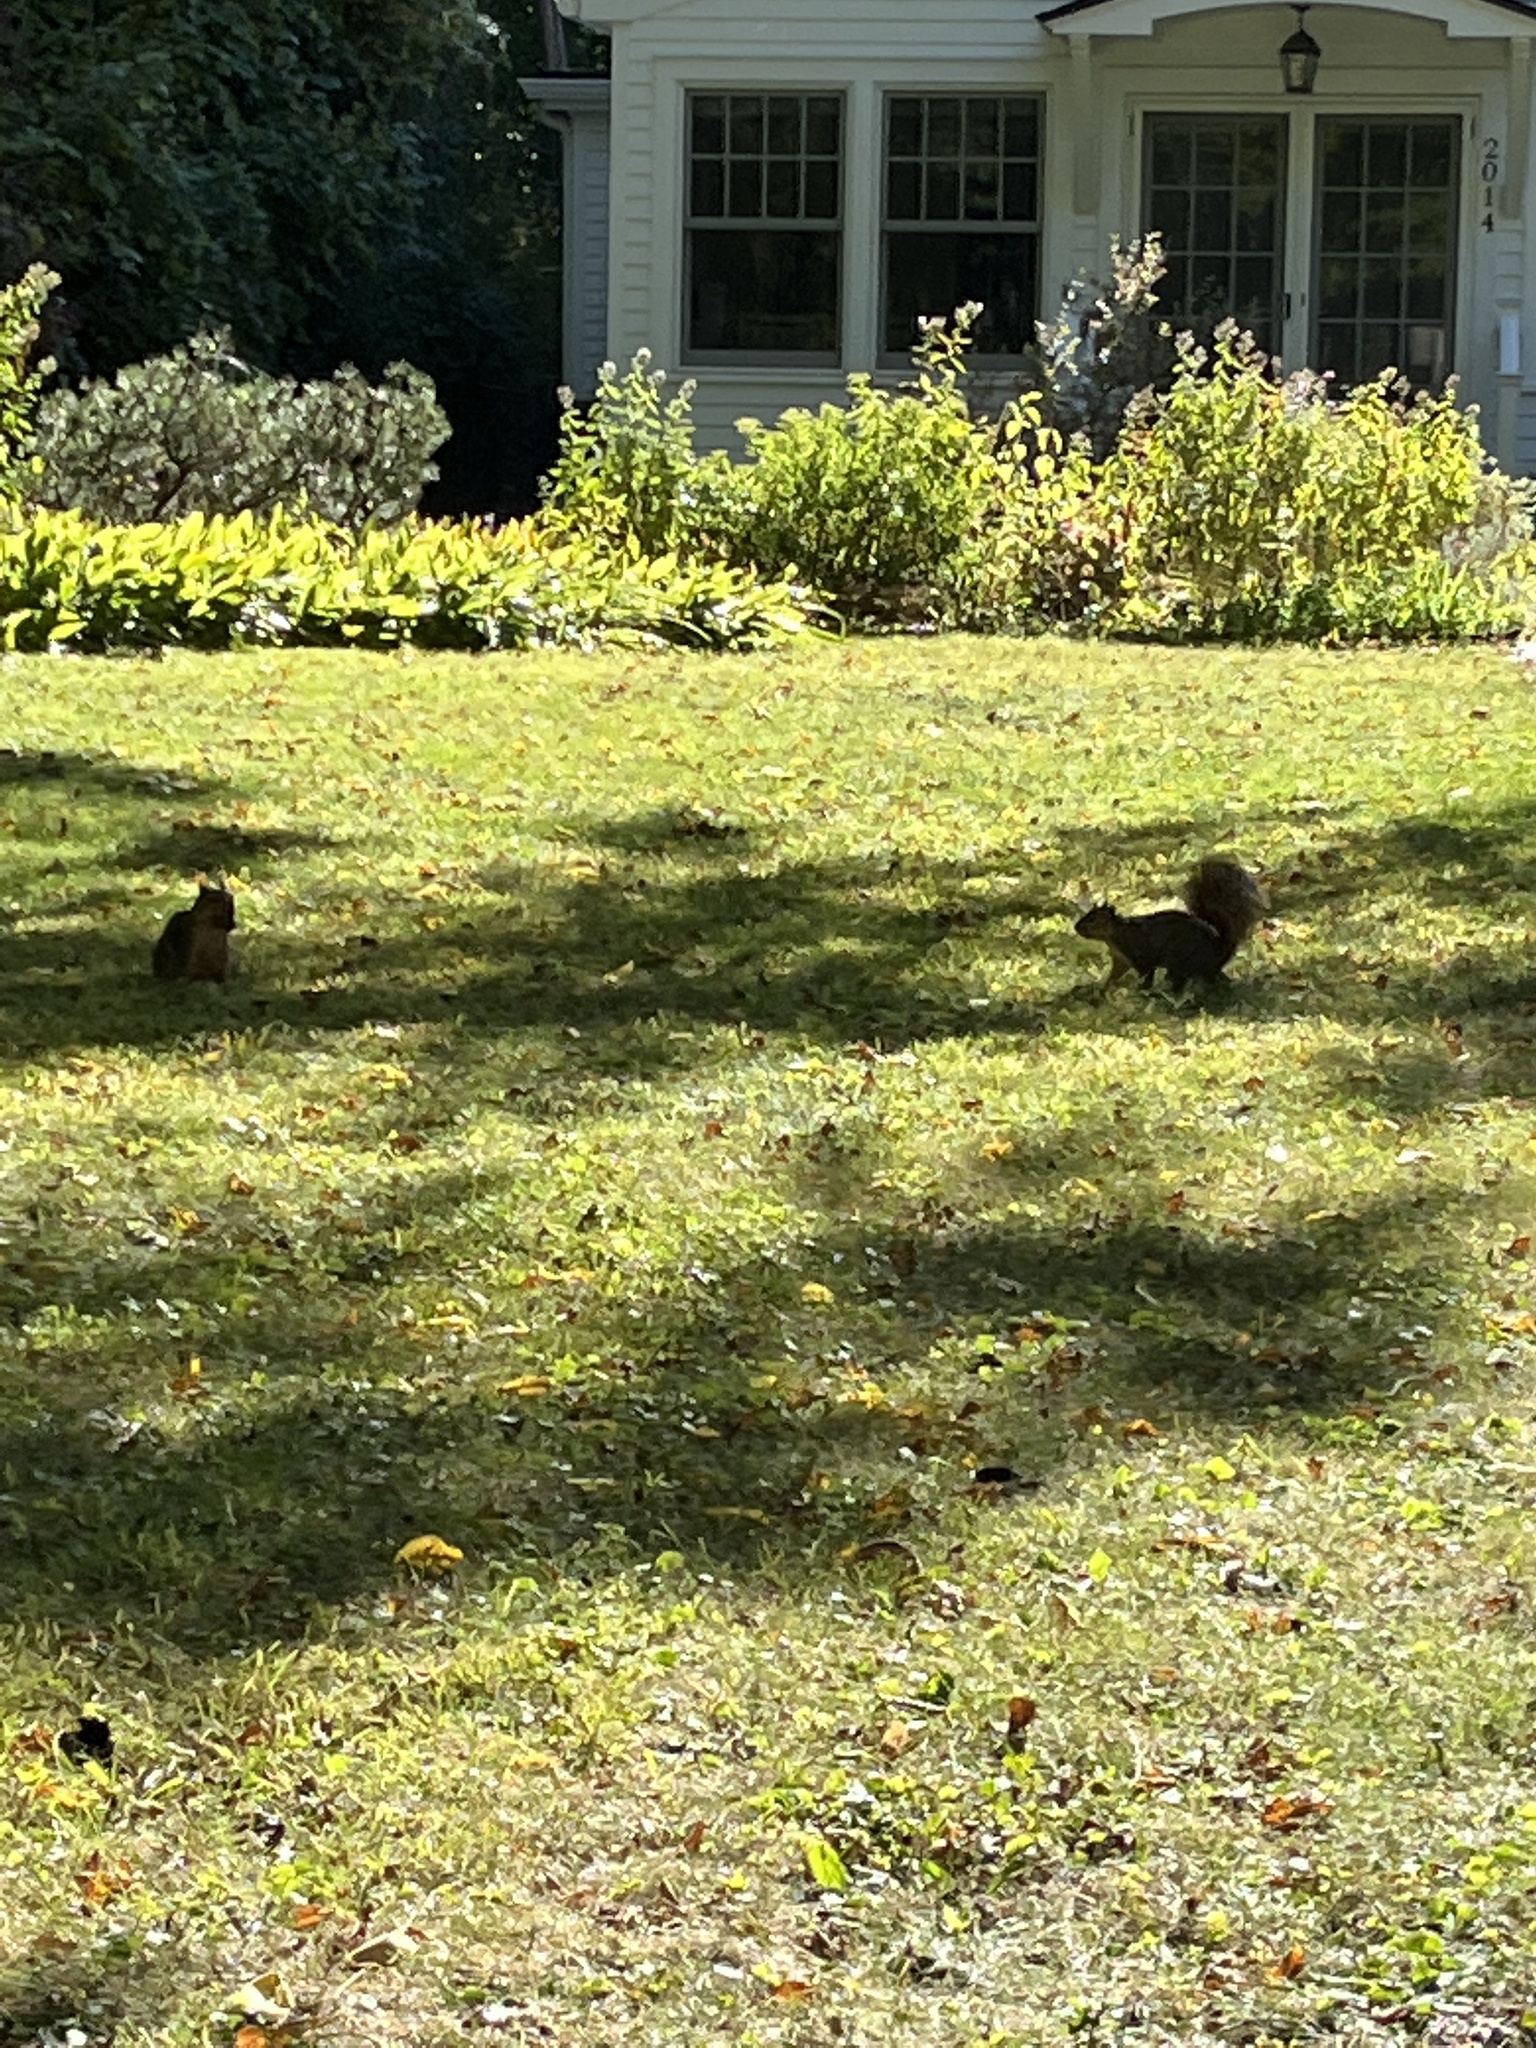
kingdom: Animalia
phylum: Chordata
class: Mammalia
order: Rodentia
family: Sciuridae
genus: Sciurus
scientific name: Sciurus niger
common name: Fox squirrel
